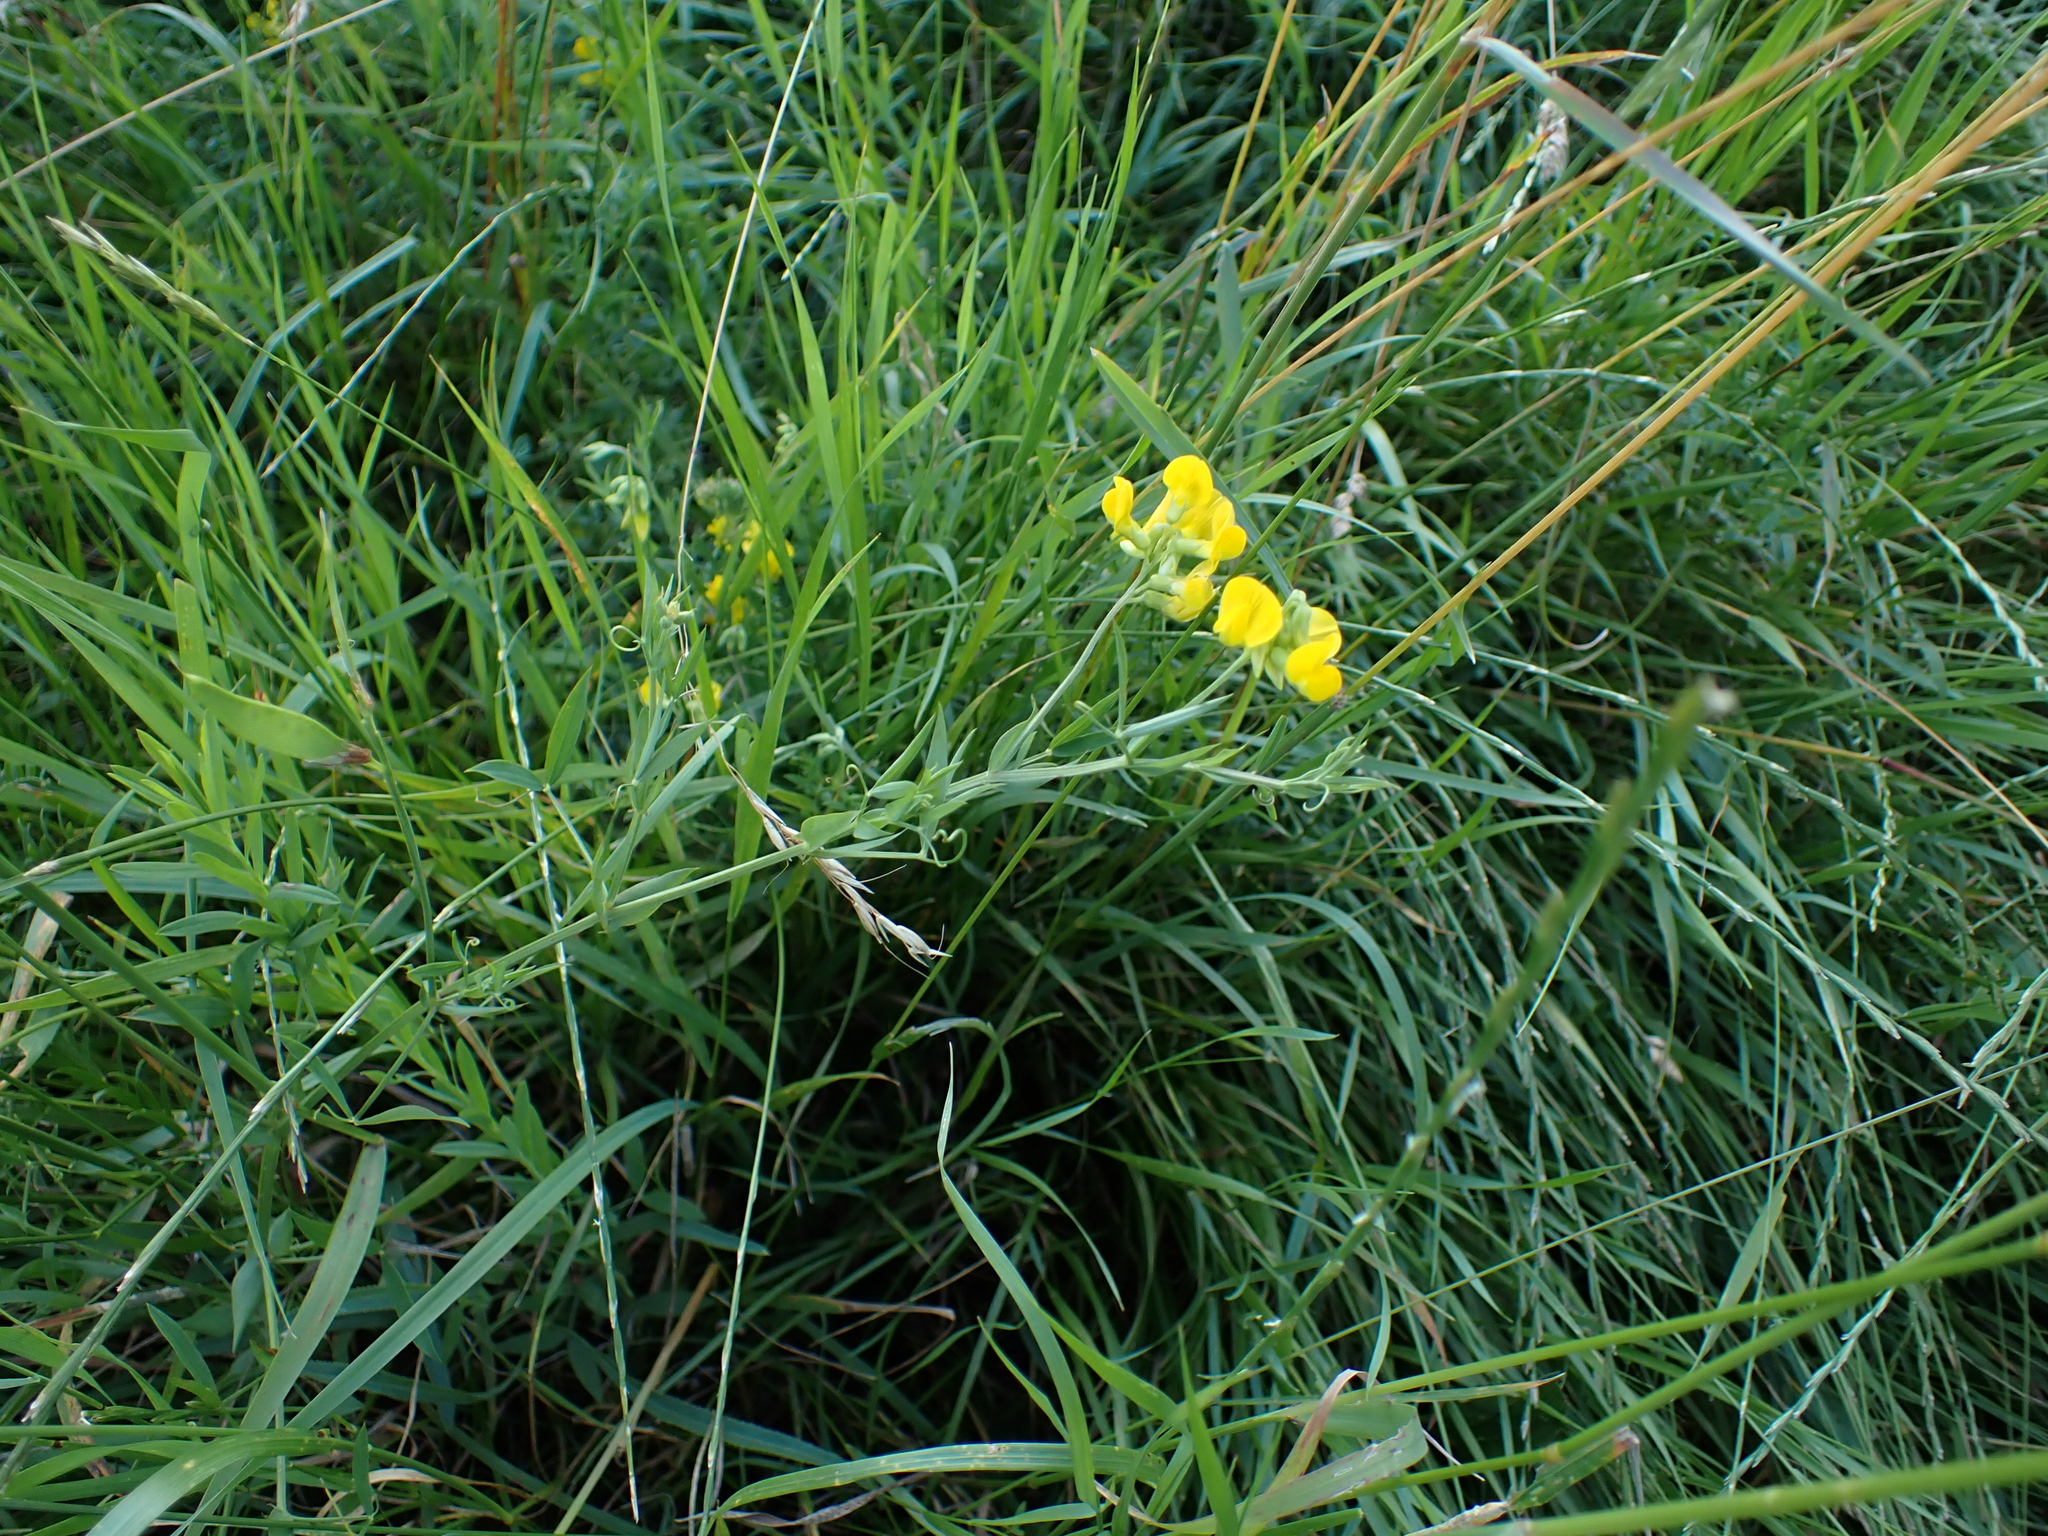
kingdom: Plantae
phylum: Tracheophyta
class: Magnoliopsida
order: Fabales
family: Fabaceae
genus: Lathyrus
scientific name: Lathyrus pratensis
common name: Meadow vetchling
